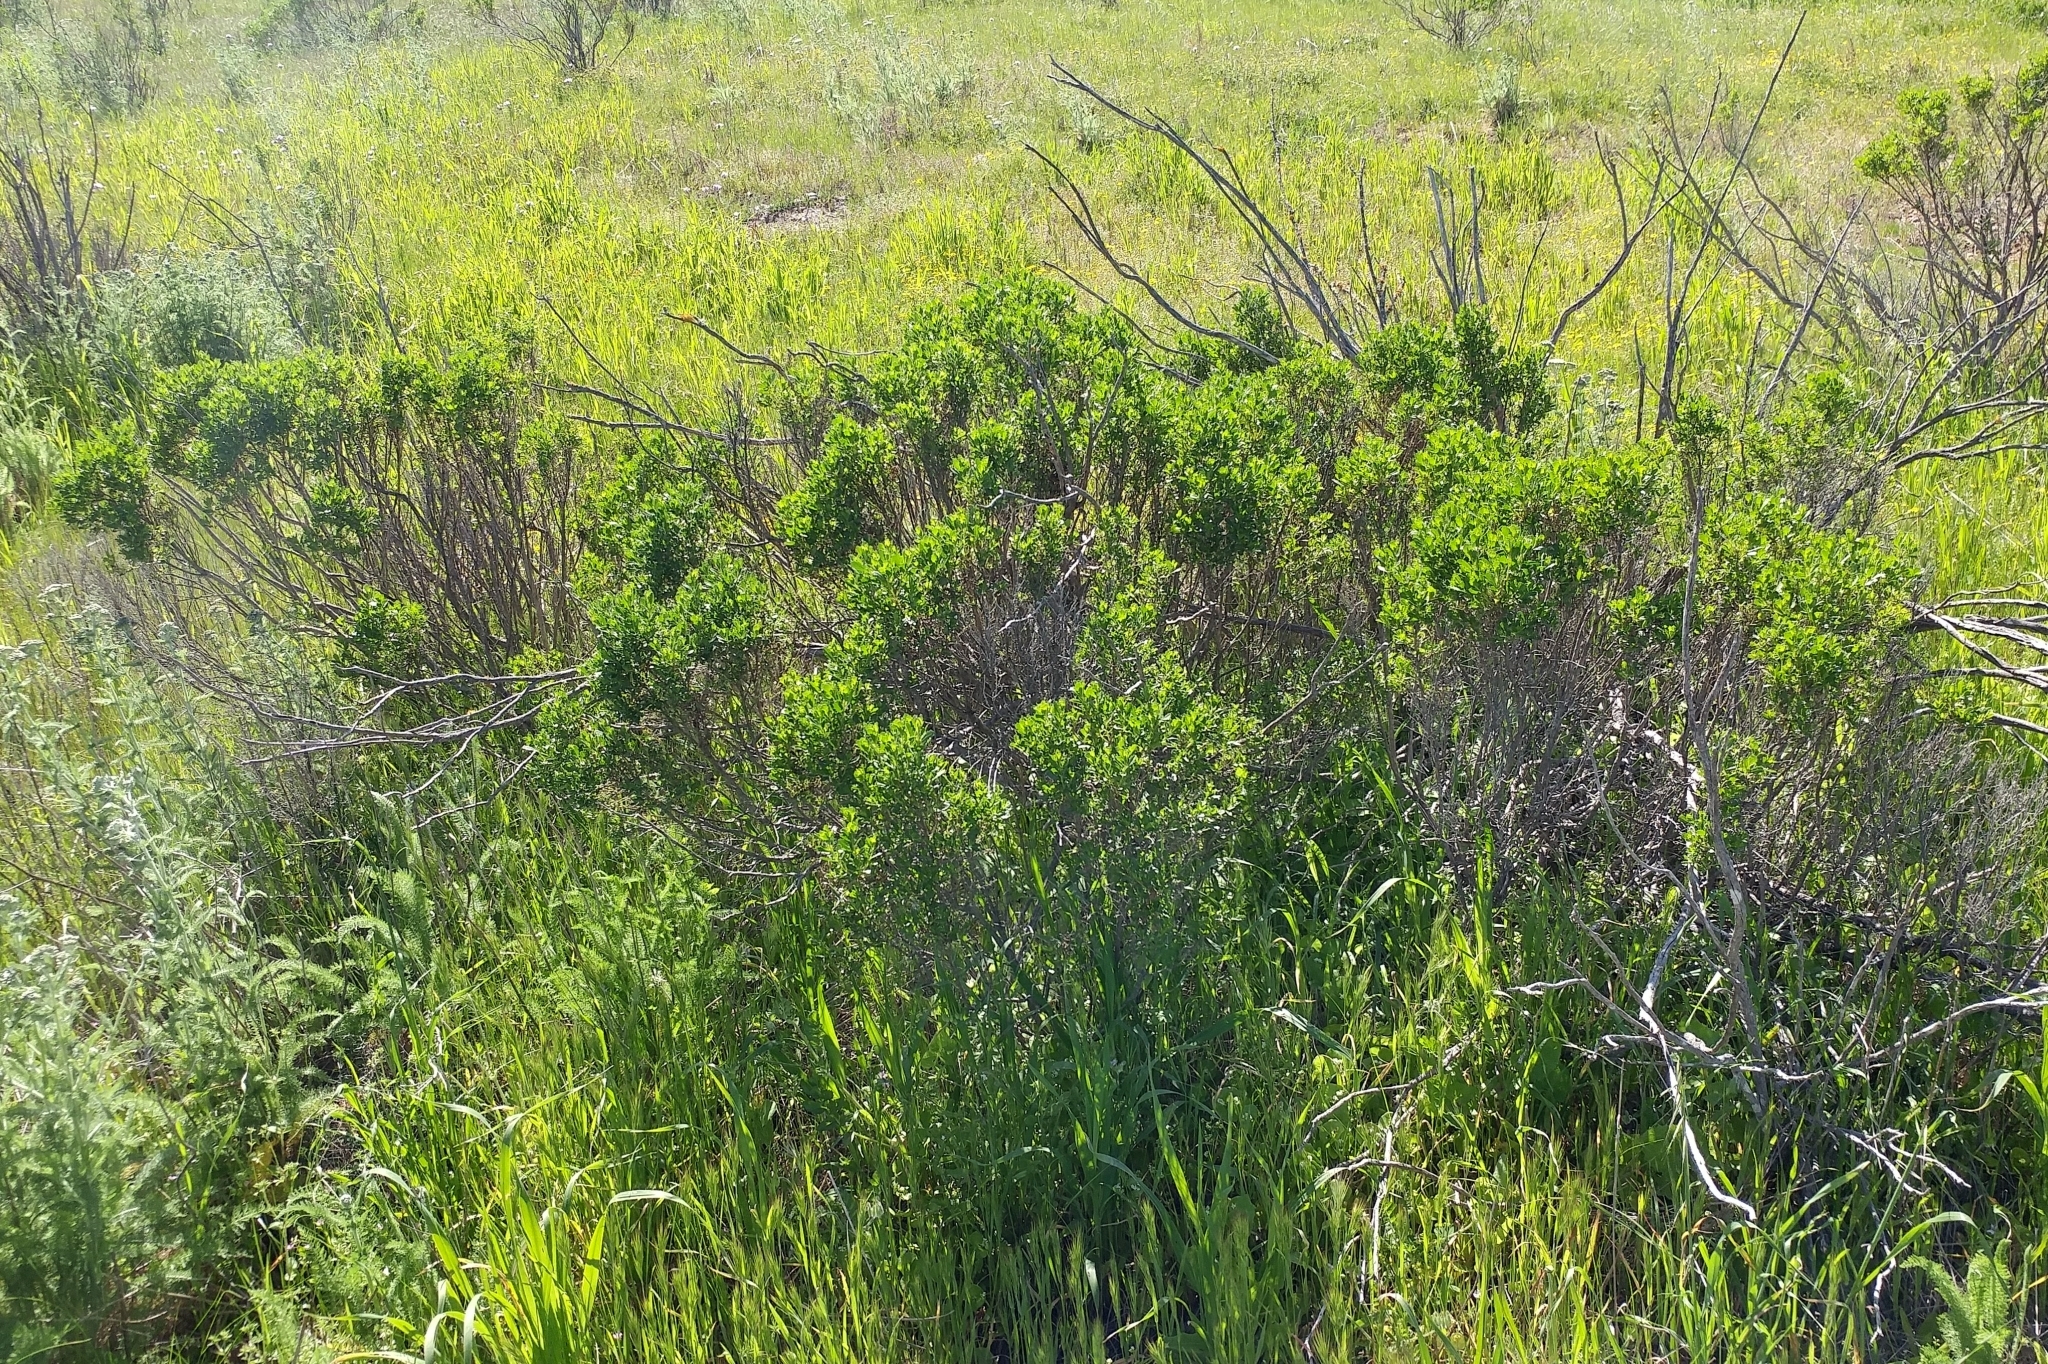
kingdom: Plantae
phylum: Tracheophyta
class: Magnoliopsida
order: Asterales
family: Asteraceae
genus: Baccharis
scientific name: Baccharis pilularis
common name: Coyotebrush
